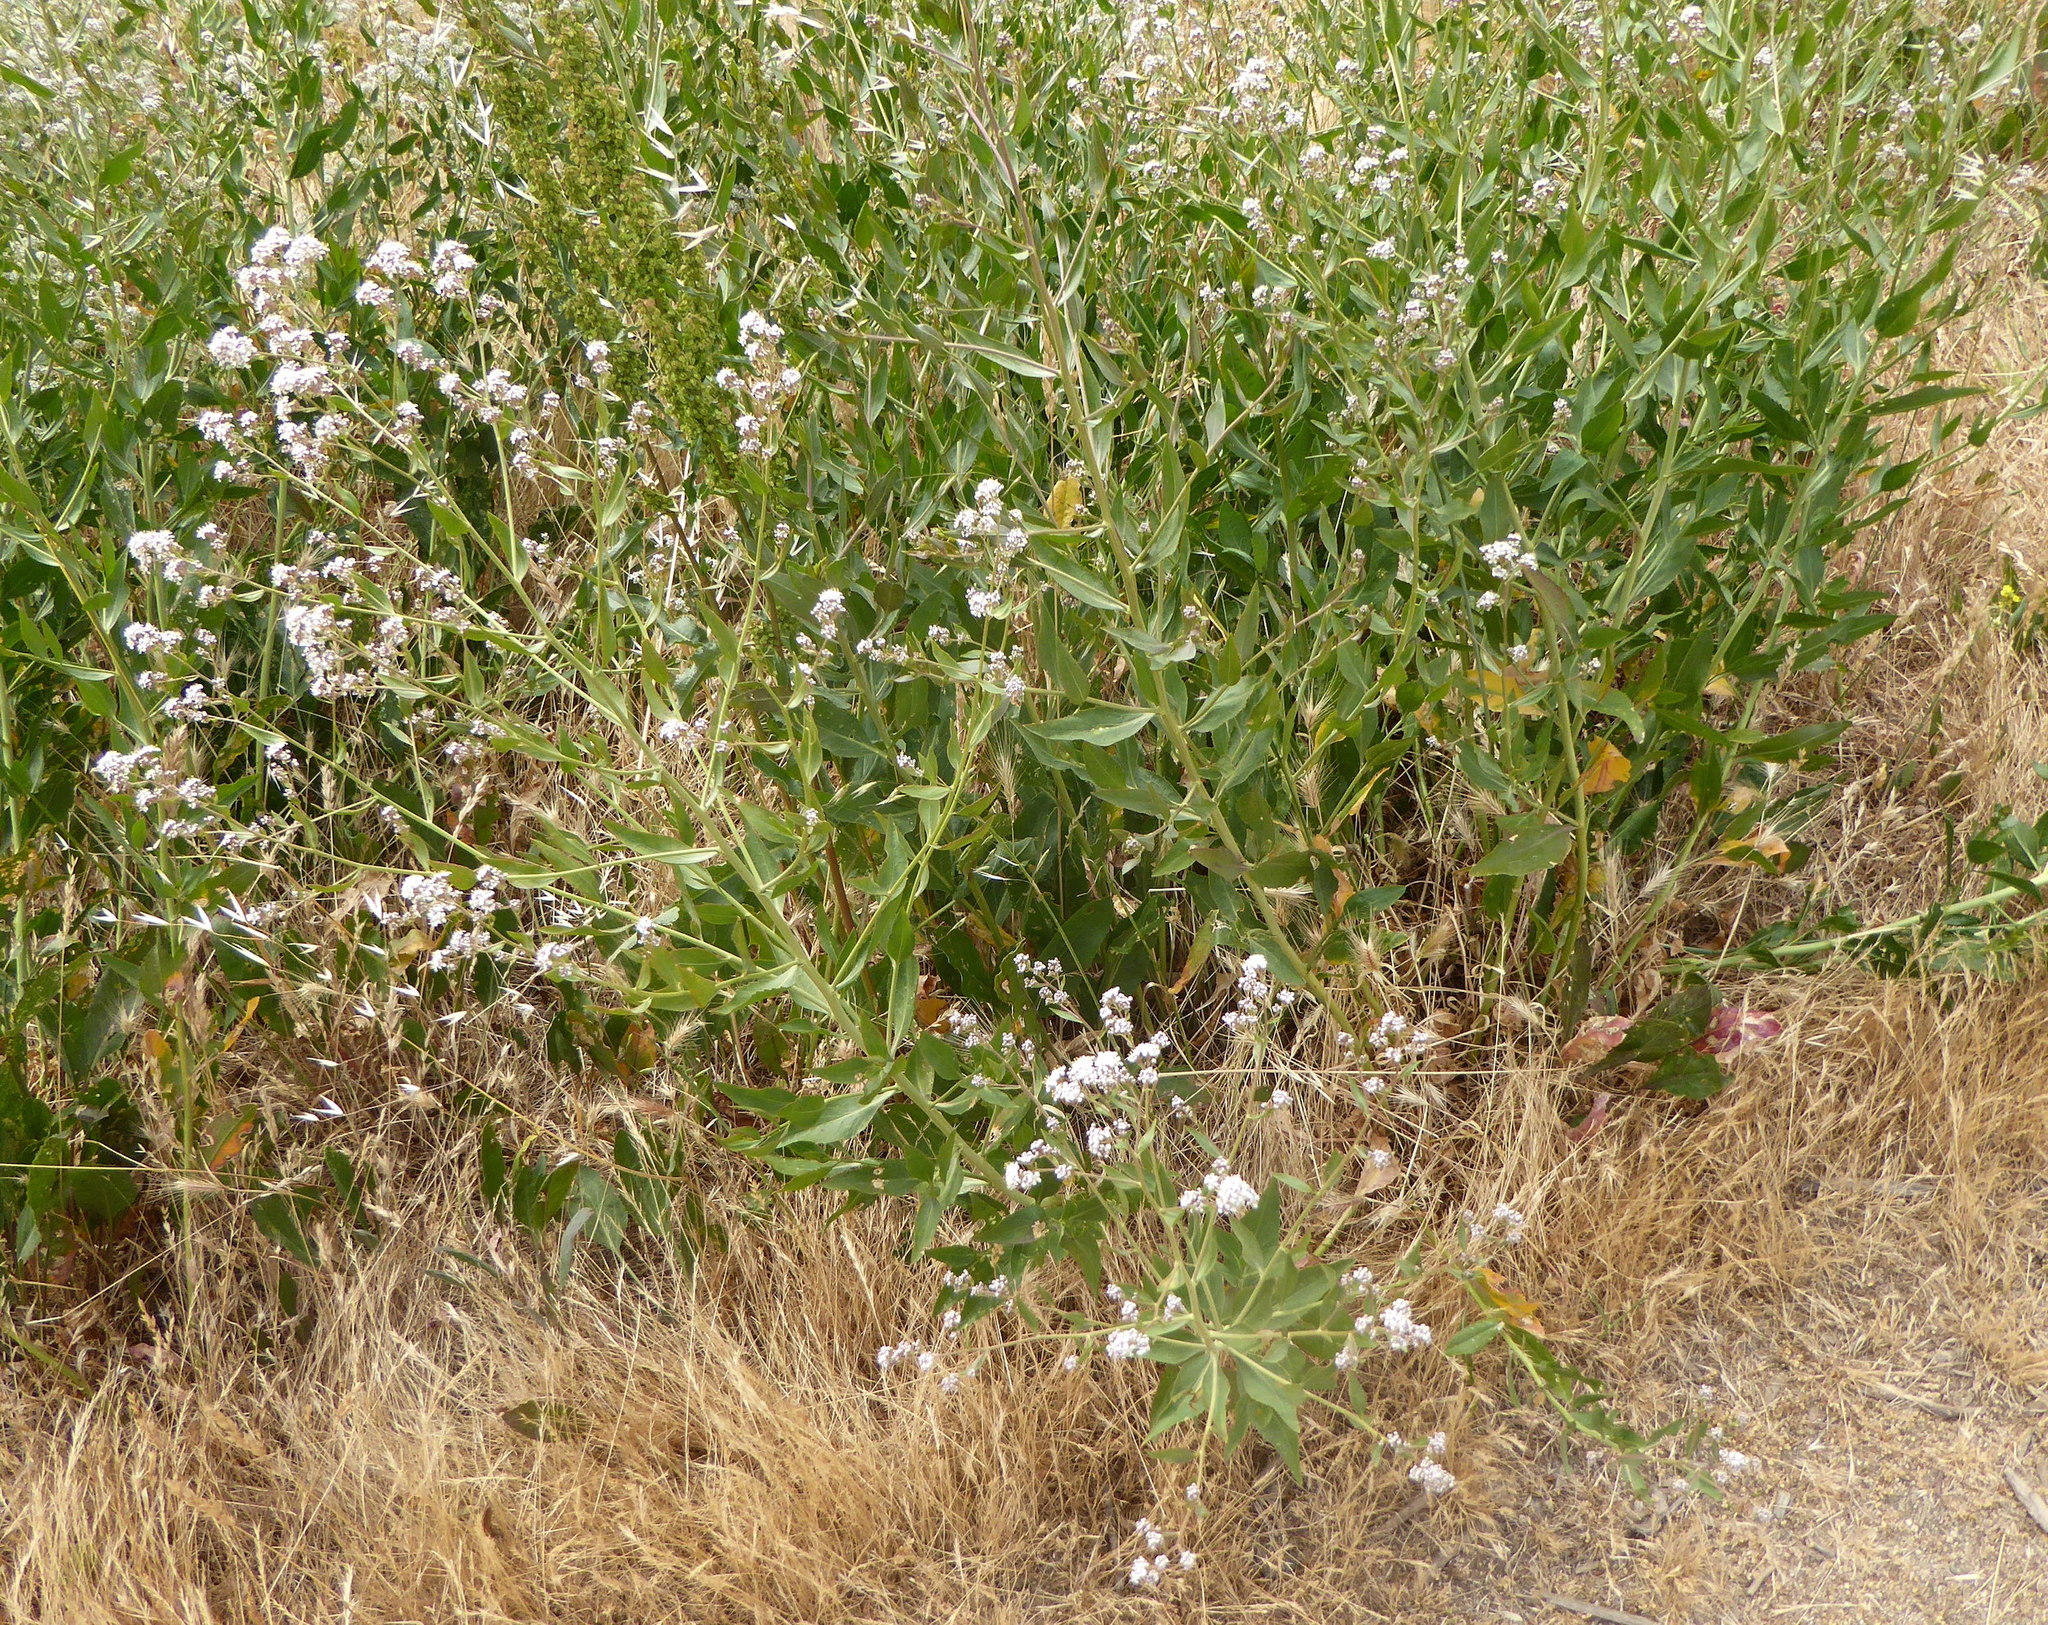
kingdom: Plantae
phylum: Tracheophyta
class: Magnoliopsida
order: Brassicales
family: Brassicaceae
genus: Lepidium
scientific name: Lepidium latifolium
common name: Dittander
